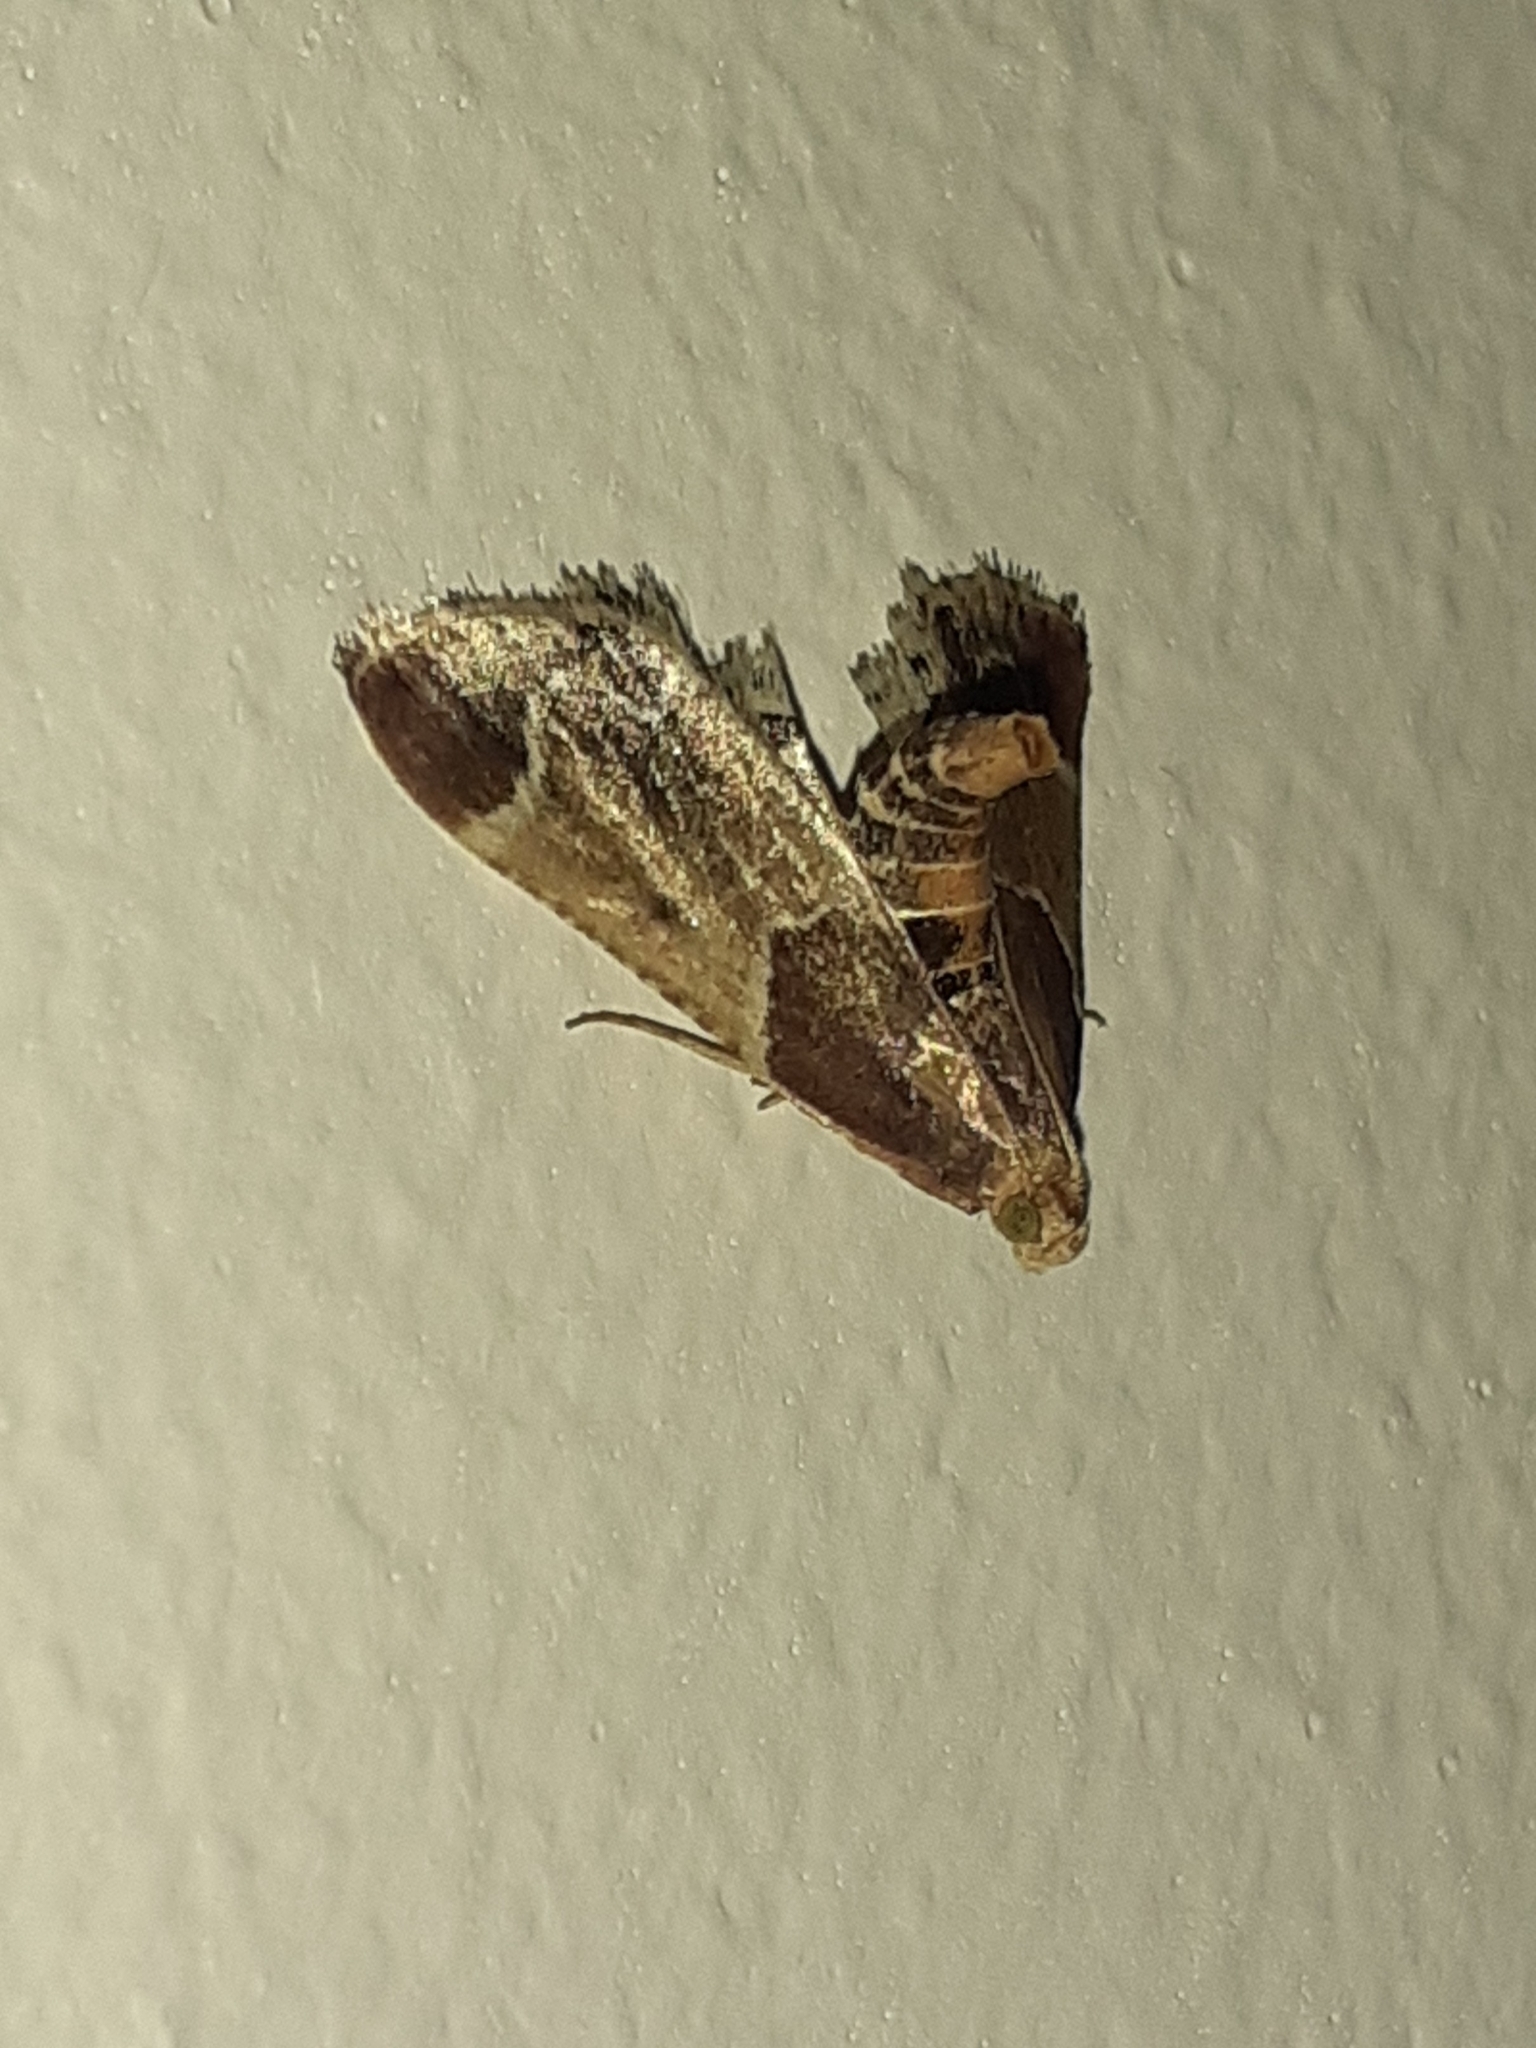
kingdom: Animalia
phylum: Arthropoda
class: Insecta
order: Lepidoptera
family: Pyralidae
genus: Pyralis
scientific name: Pyralis farinalis
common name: Meal moth
